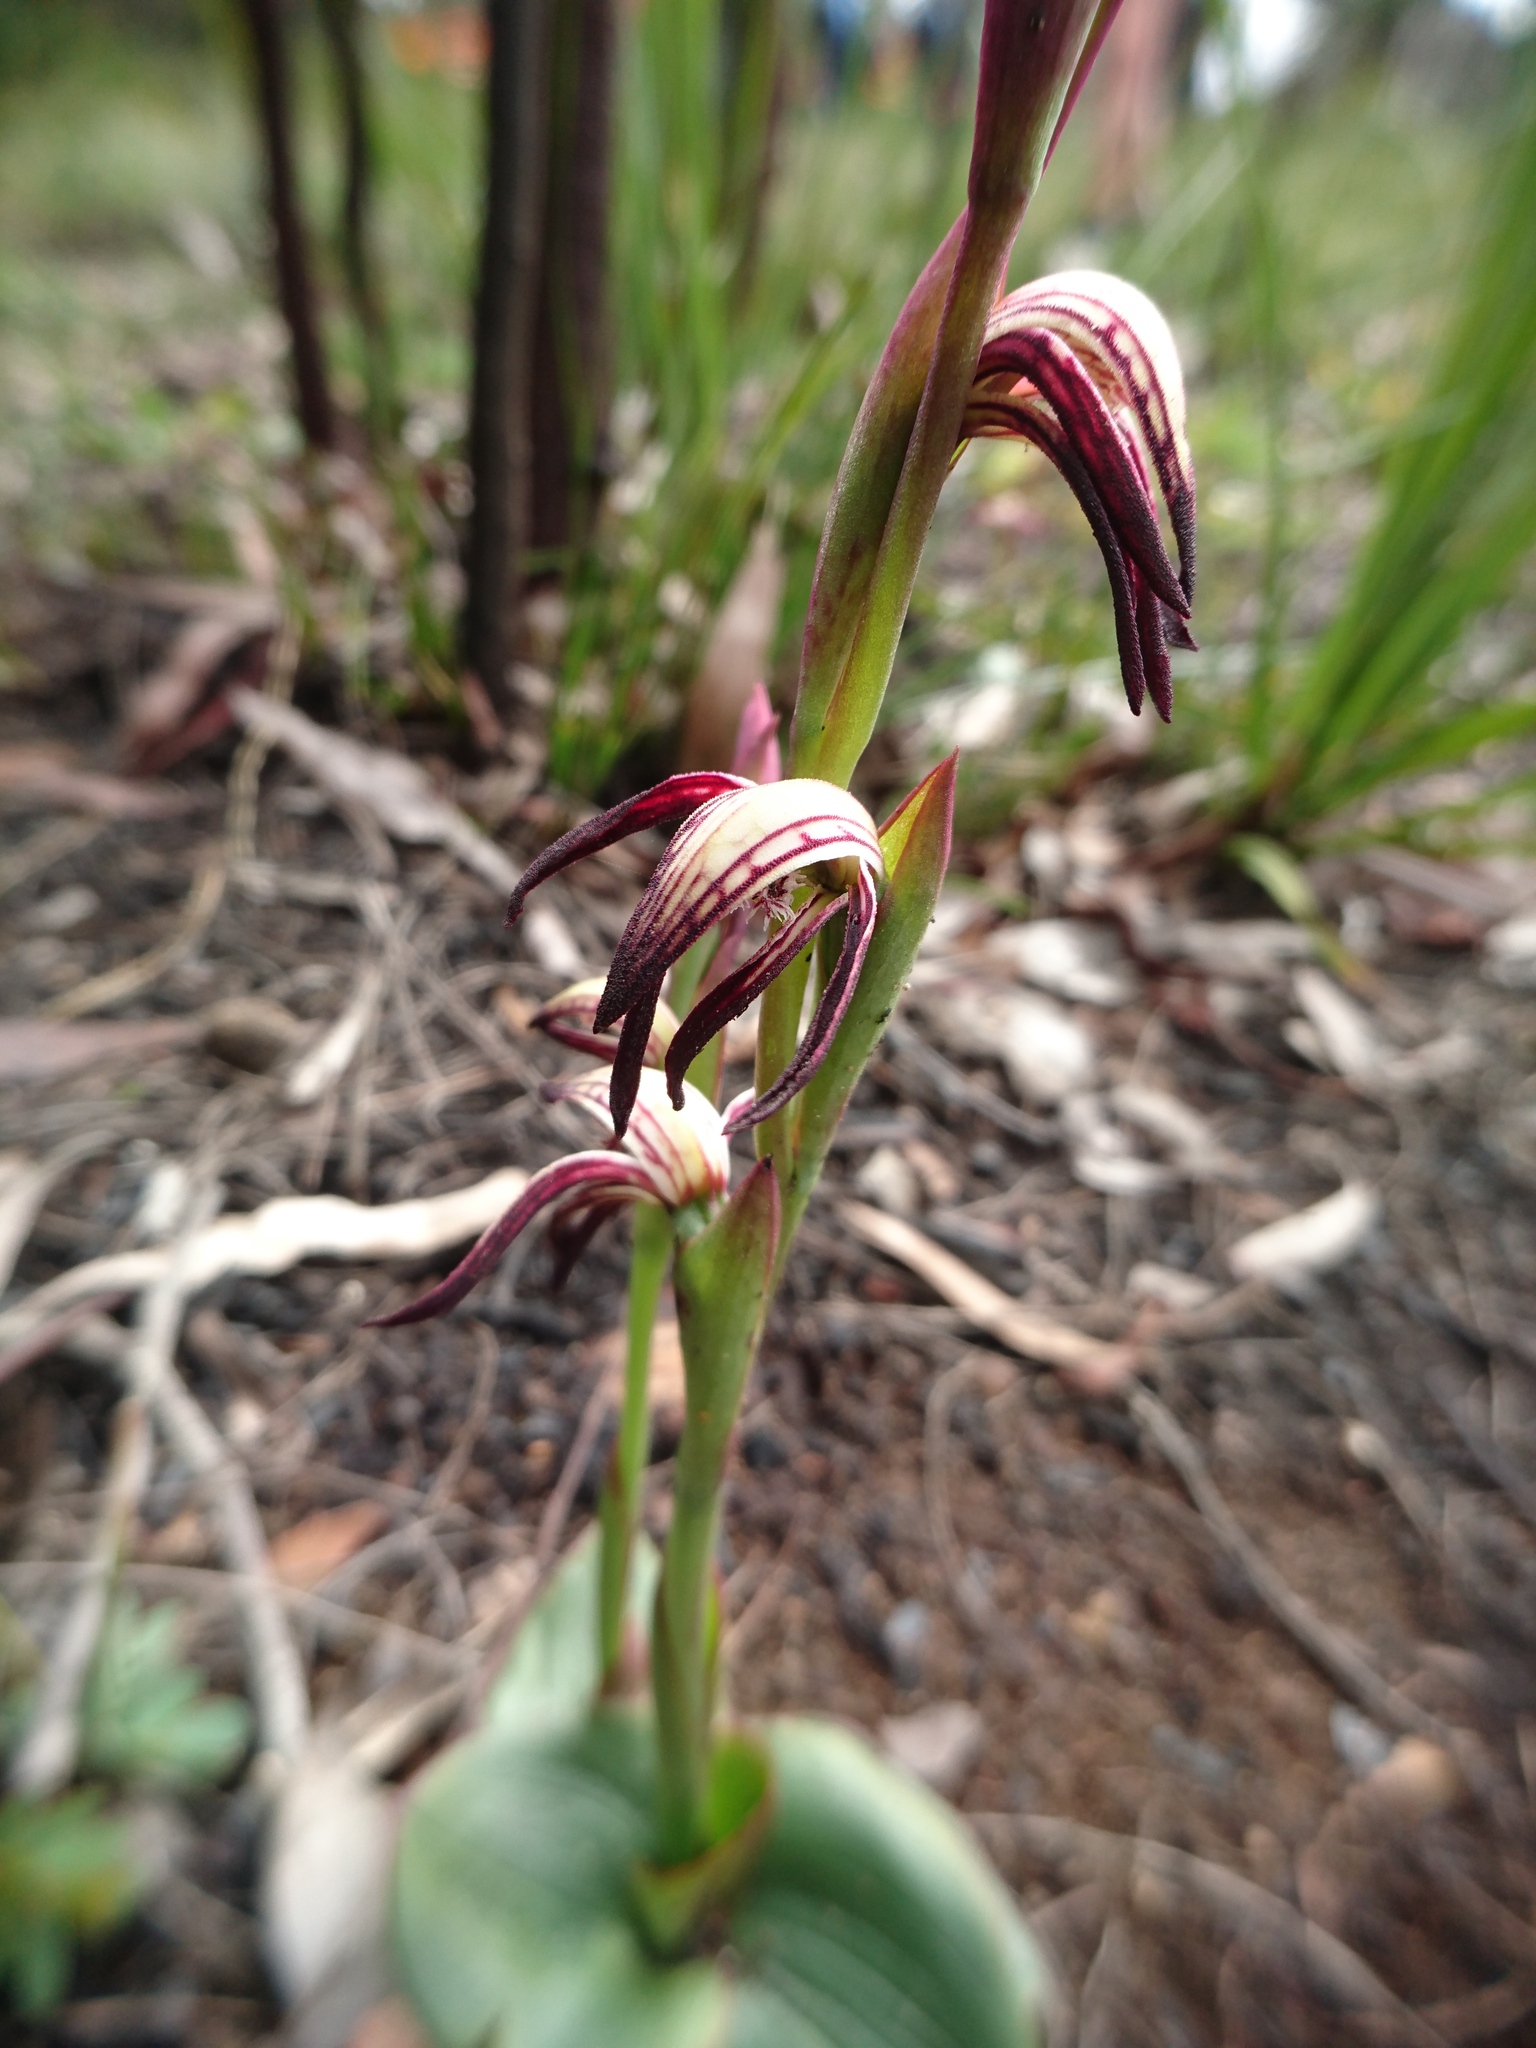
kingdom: Plantae
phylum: Tracheophyta
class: Liliopsida
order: Asparagales
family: Orchidaceae
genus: Pyrorchis
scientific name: Pyrorchis nigricans
